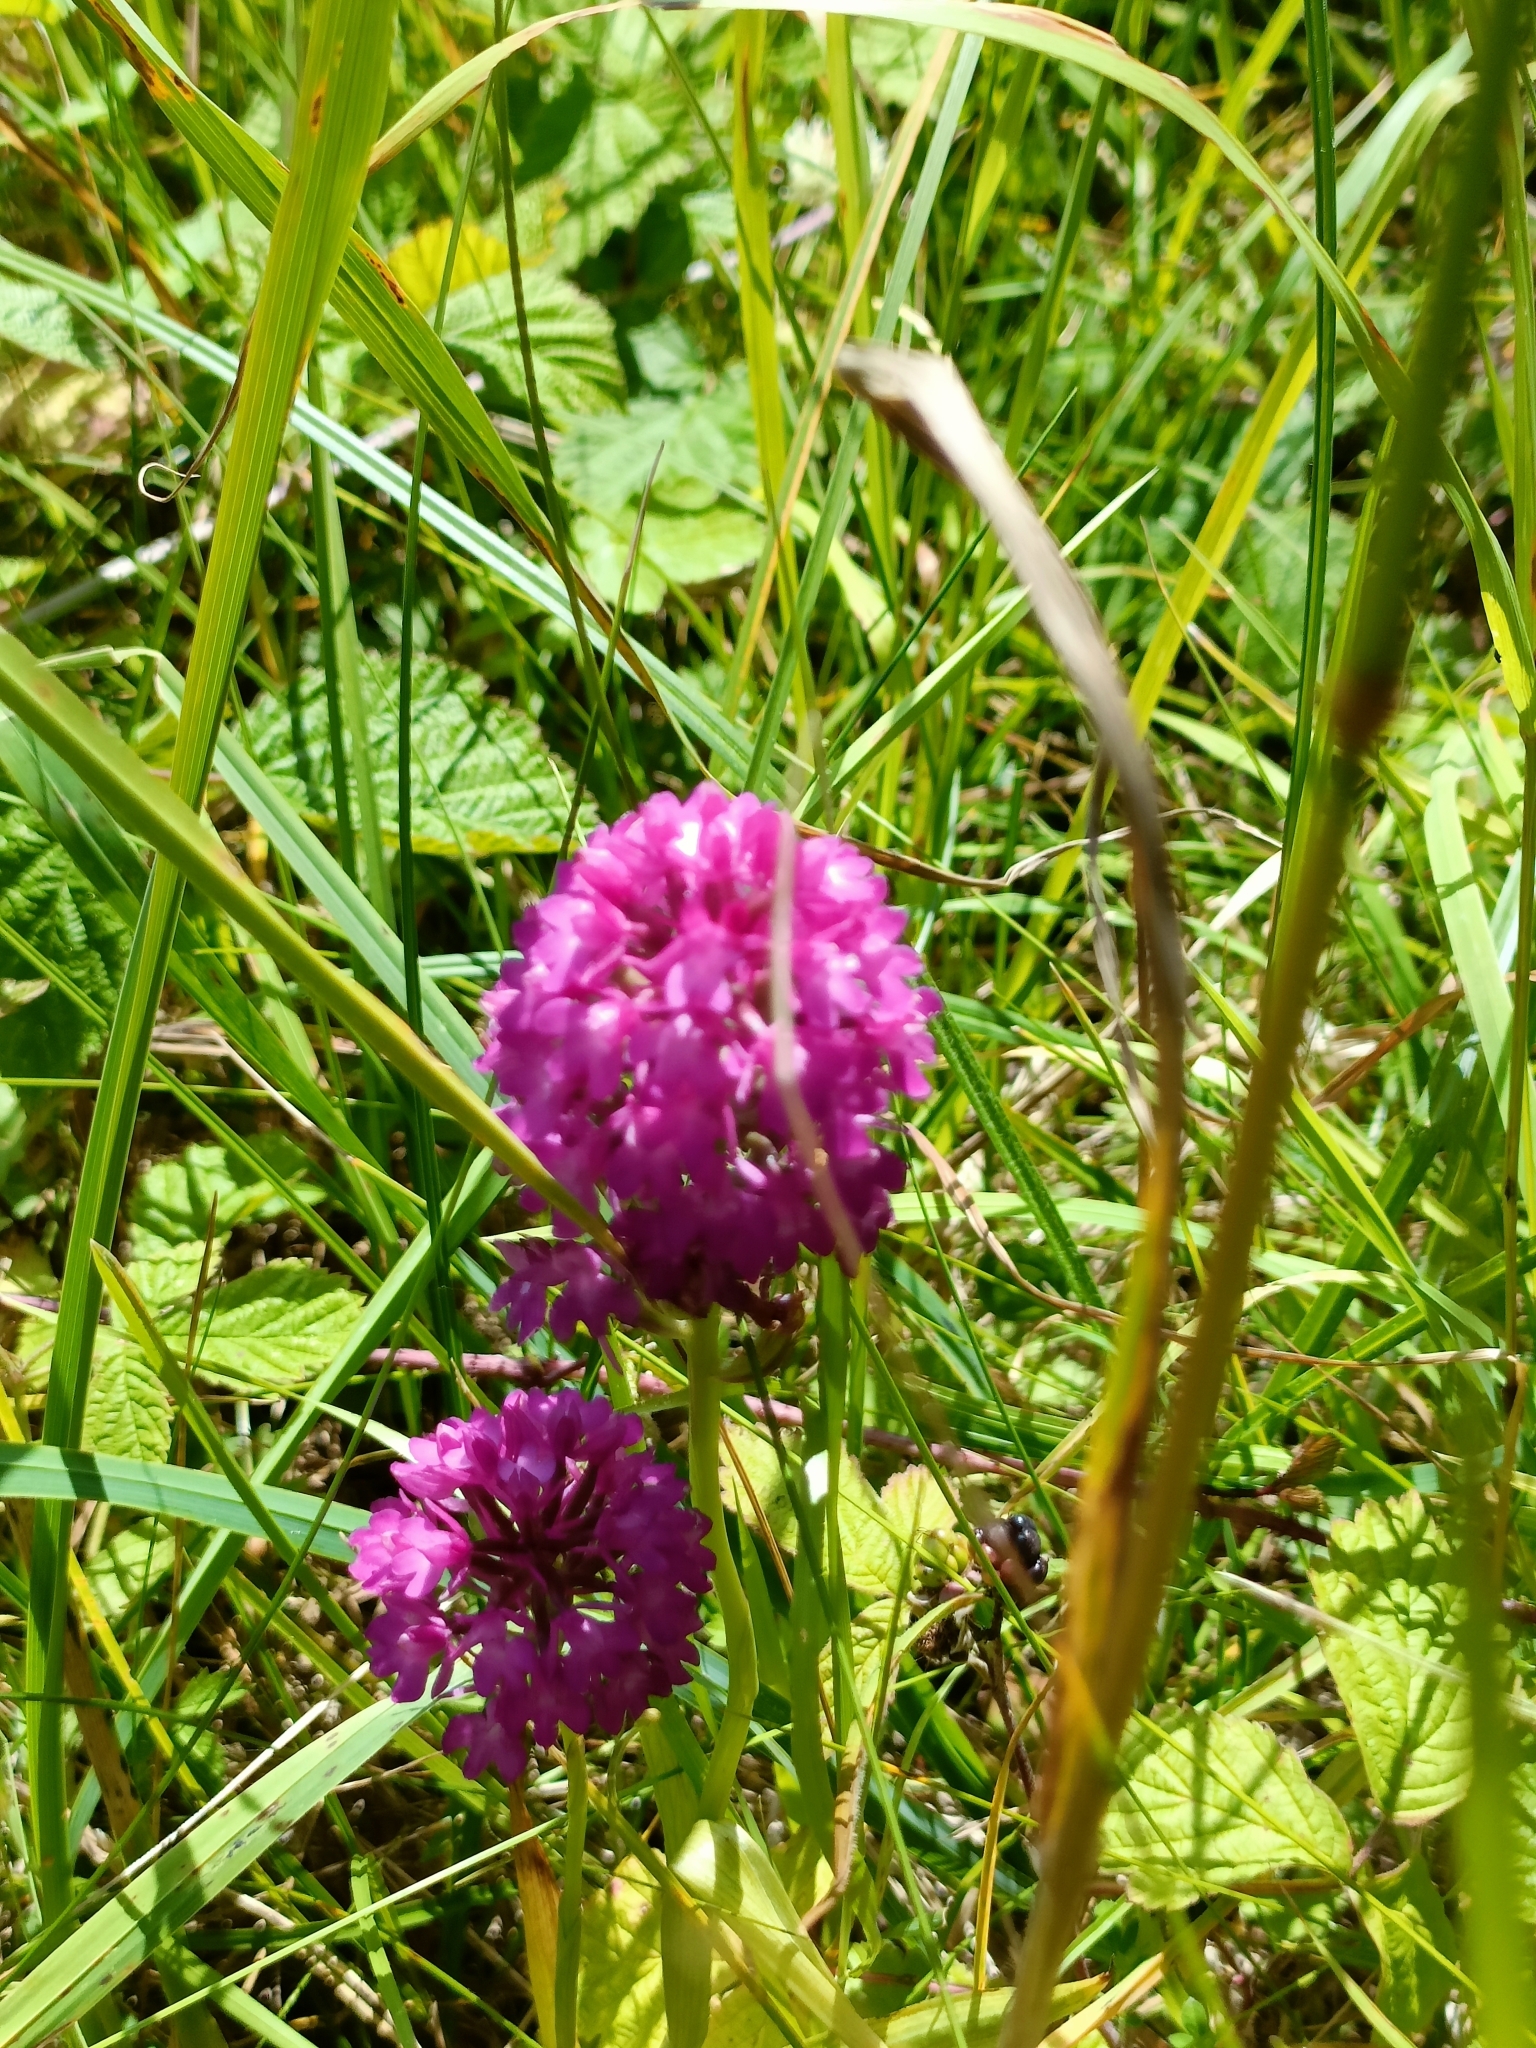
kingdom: Plantae
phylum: Tracheophyta
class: Liliopsida
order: Asparagales
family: Orchidaceae
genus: Anacamptis
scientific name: Anacamptis pyramidalis
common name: Pyramidal orchid
